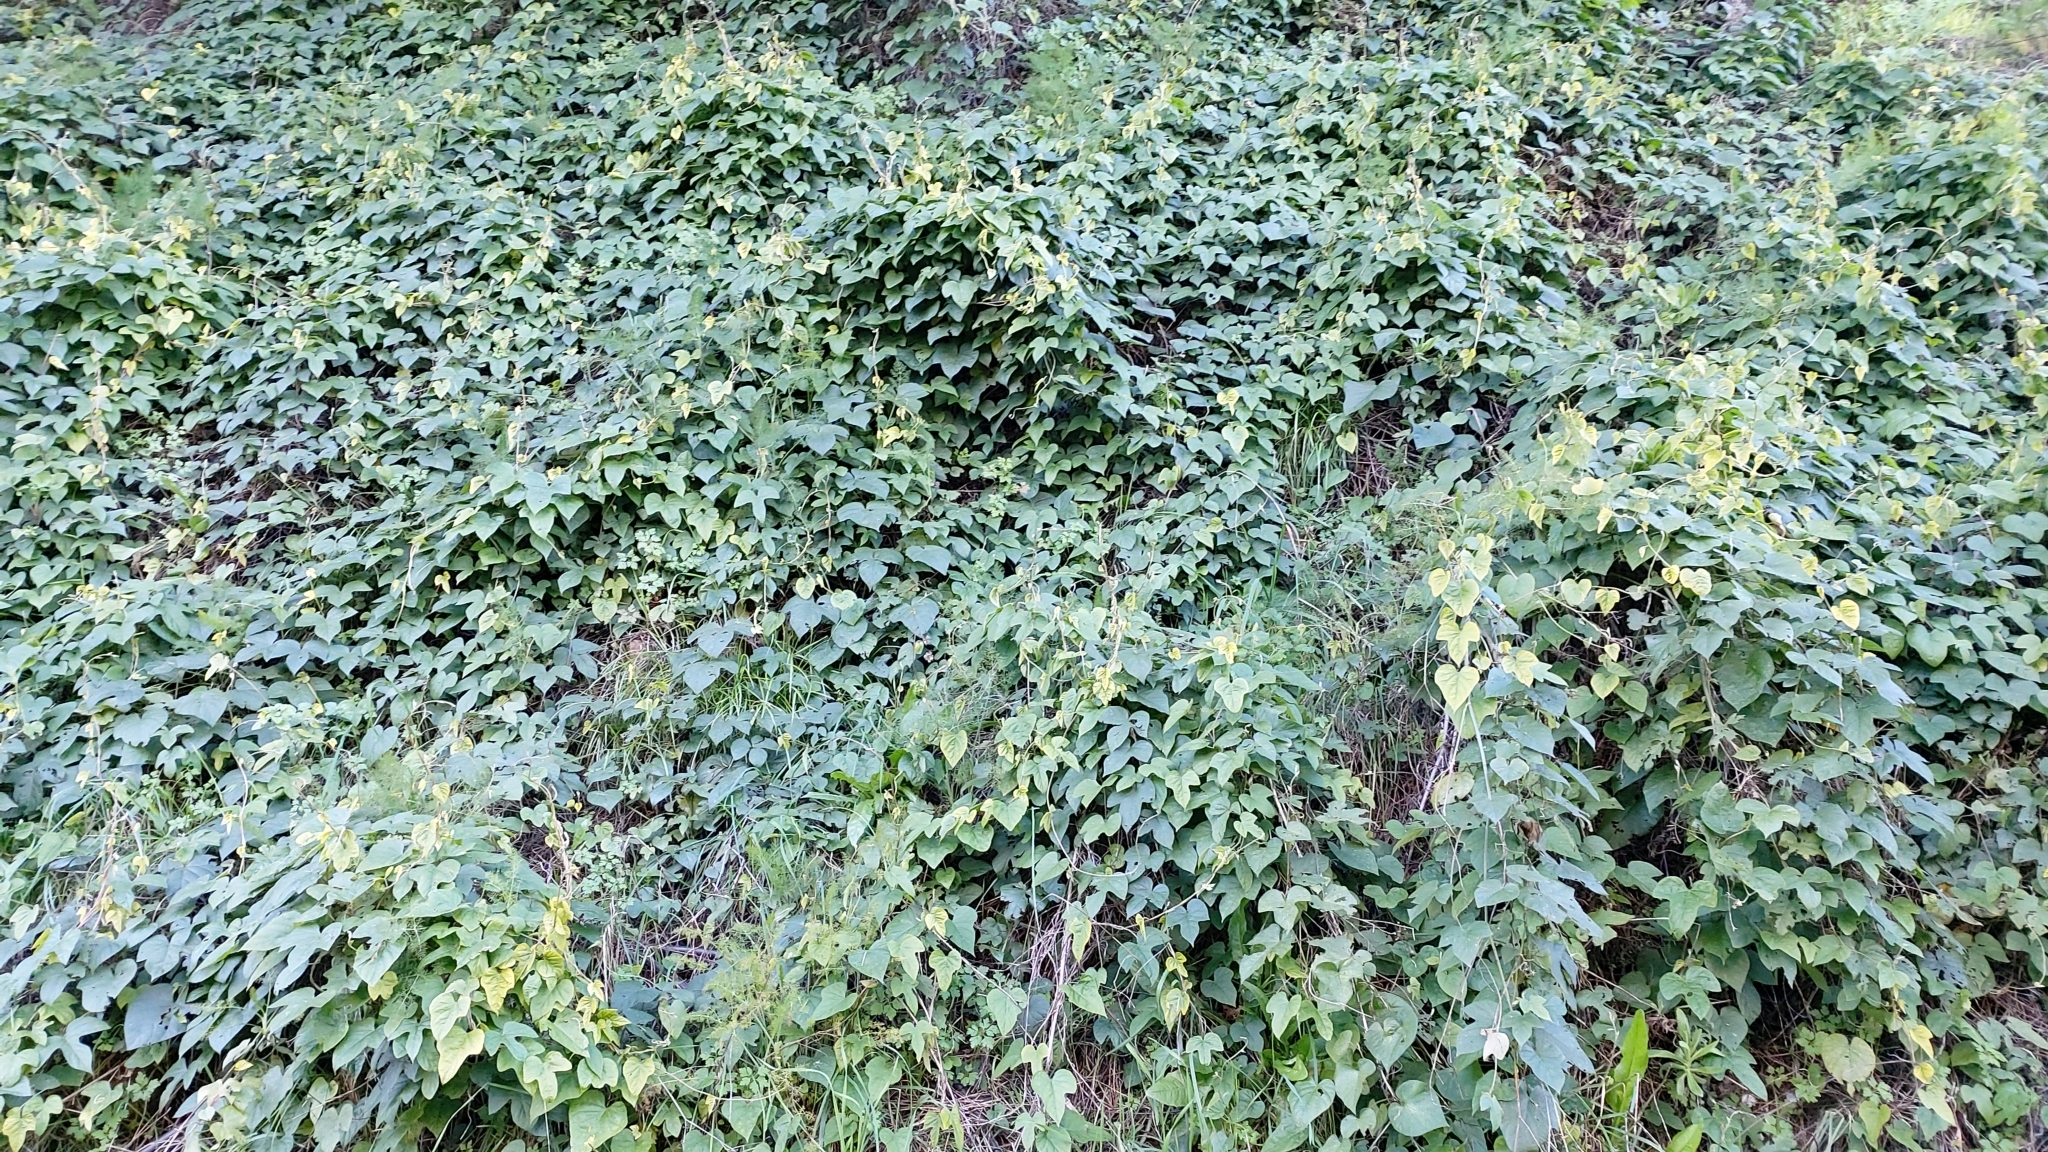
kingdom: Plantae
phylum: Tracheophyta
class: Magnoliopsida
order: Solanales
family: Convolvulaceae
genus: Ipomoea
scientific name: Ipomoea indica
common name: Blue dawnflower
